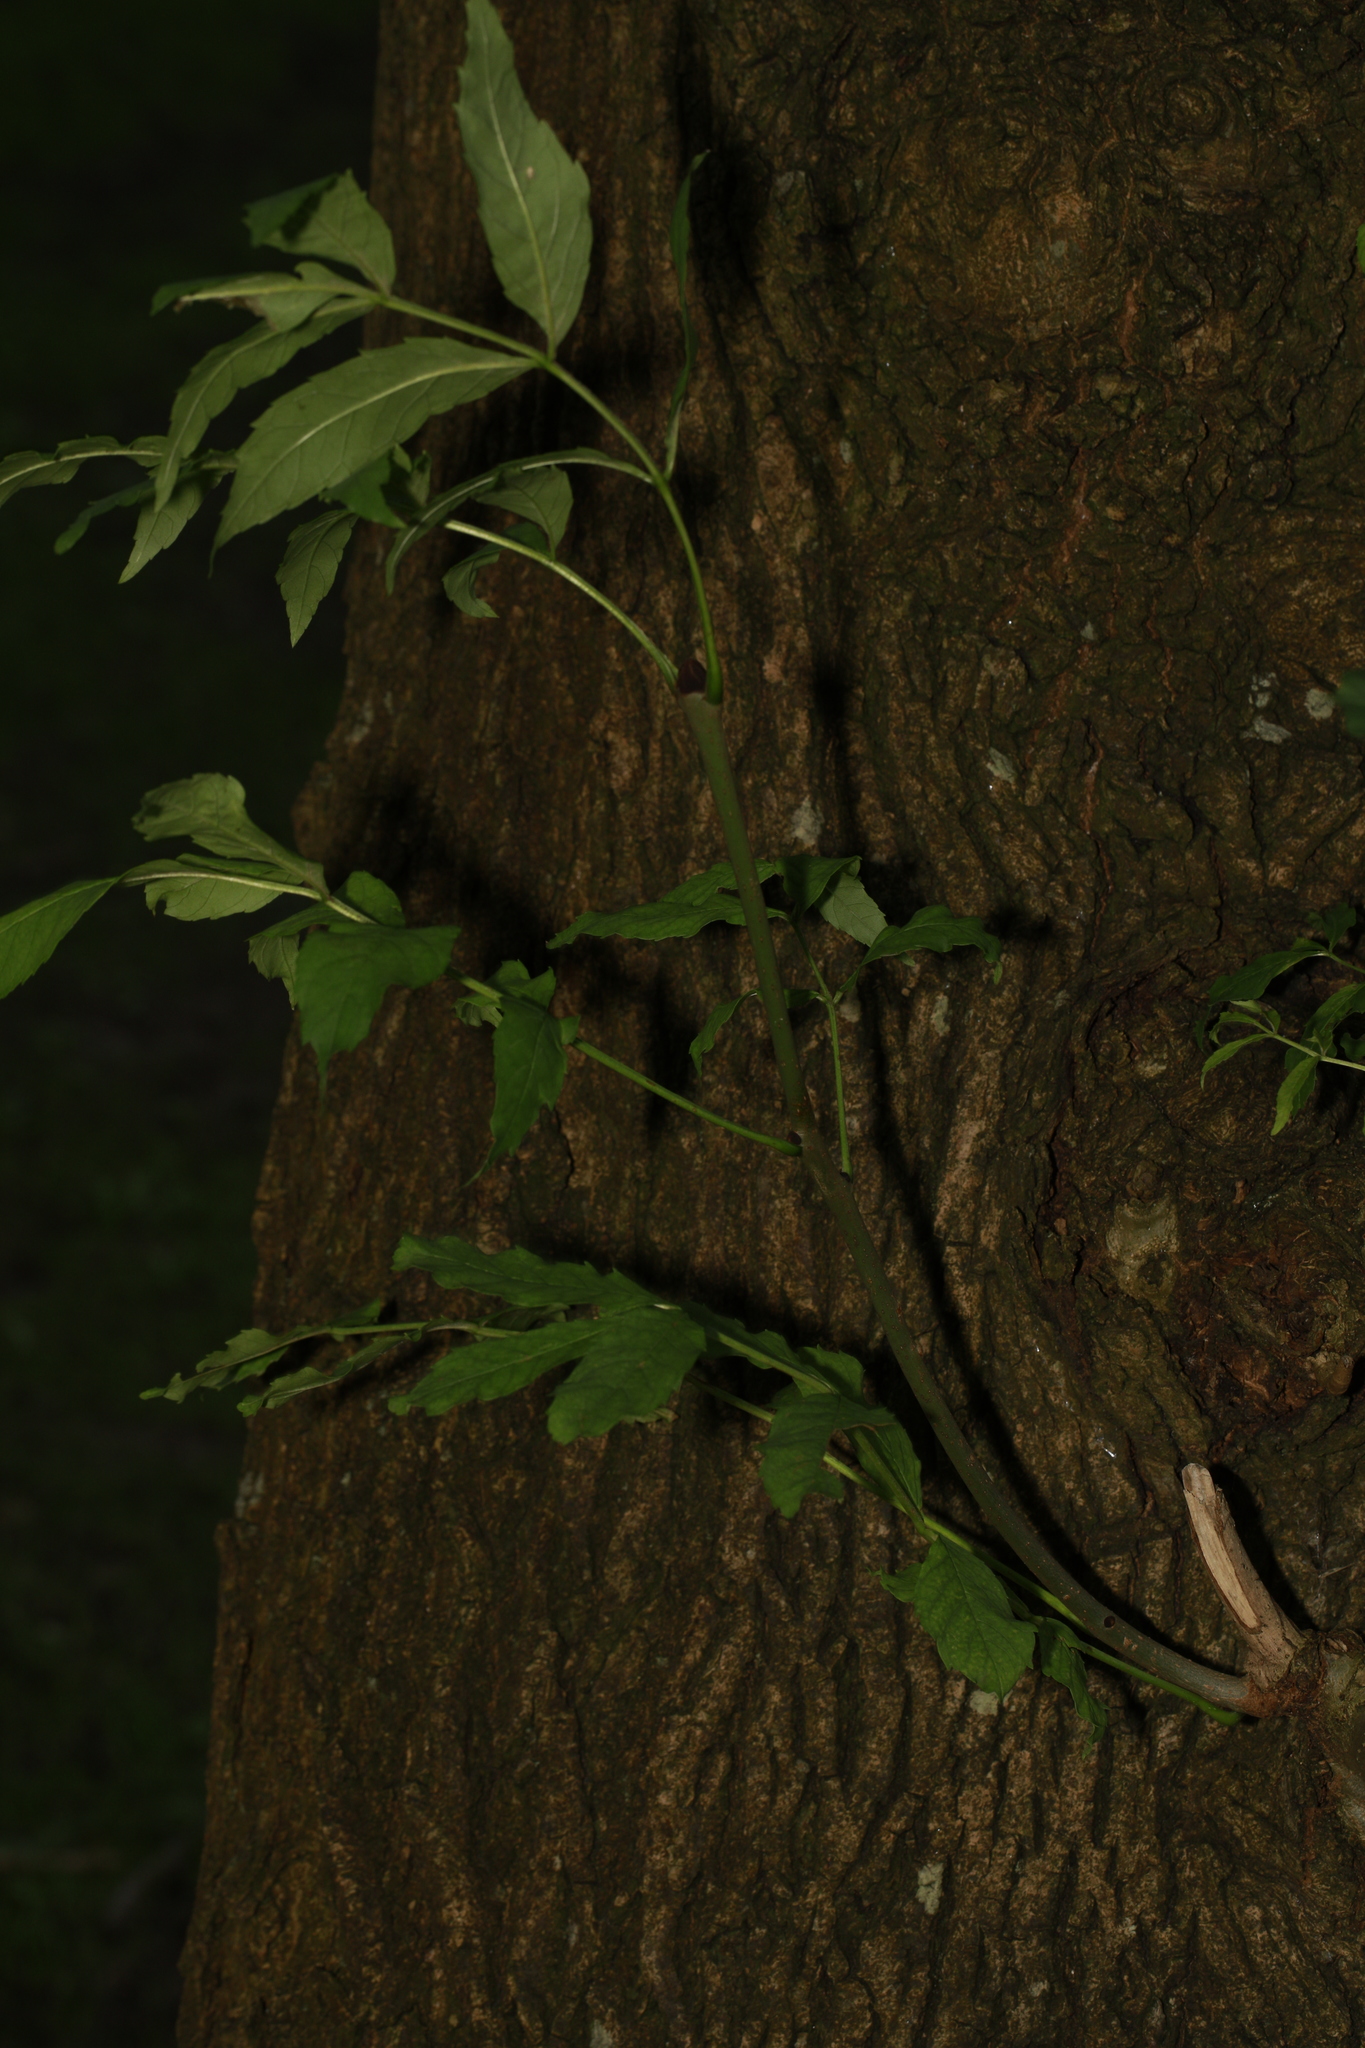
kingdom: Plantae
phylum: Tracheophyta
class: Magnoliopsida
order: Lamiales
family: Oleaceae
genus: Fraxinus
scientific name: Fraxinus excelsior
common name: European ash
